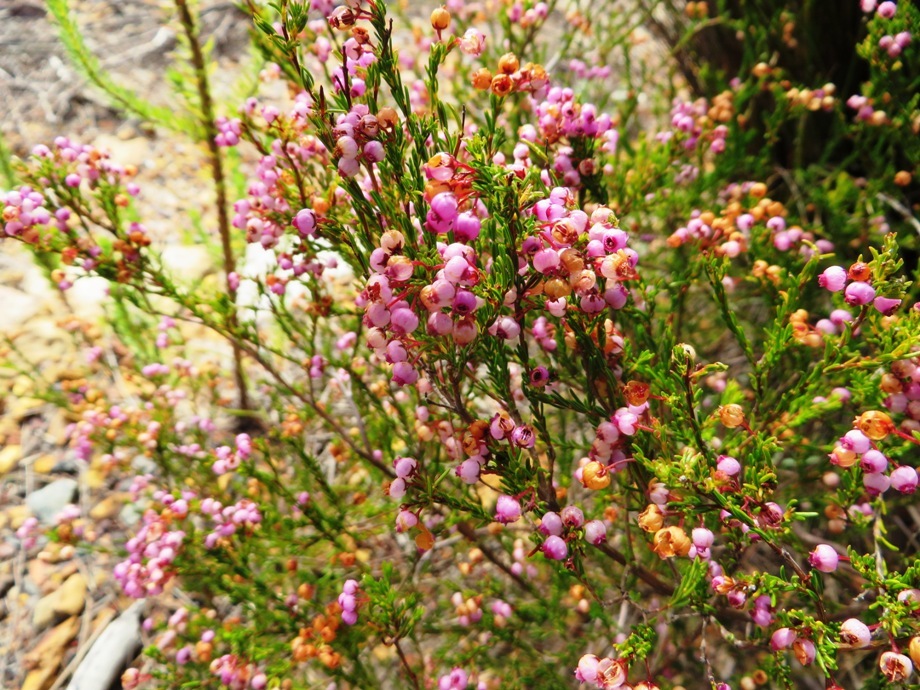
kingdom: Plantae
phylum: Tracheophyta
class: Magnoliopsida
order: Ericales
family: Ericaceae
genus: Erica
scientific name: Erica multumbellifera
